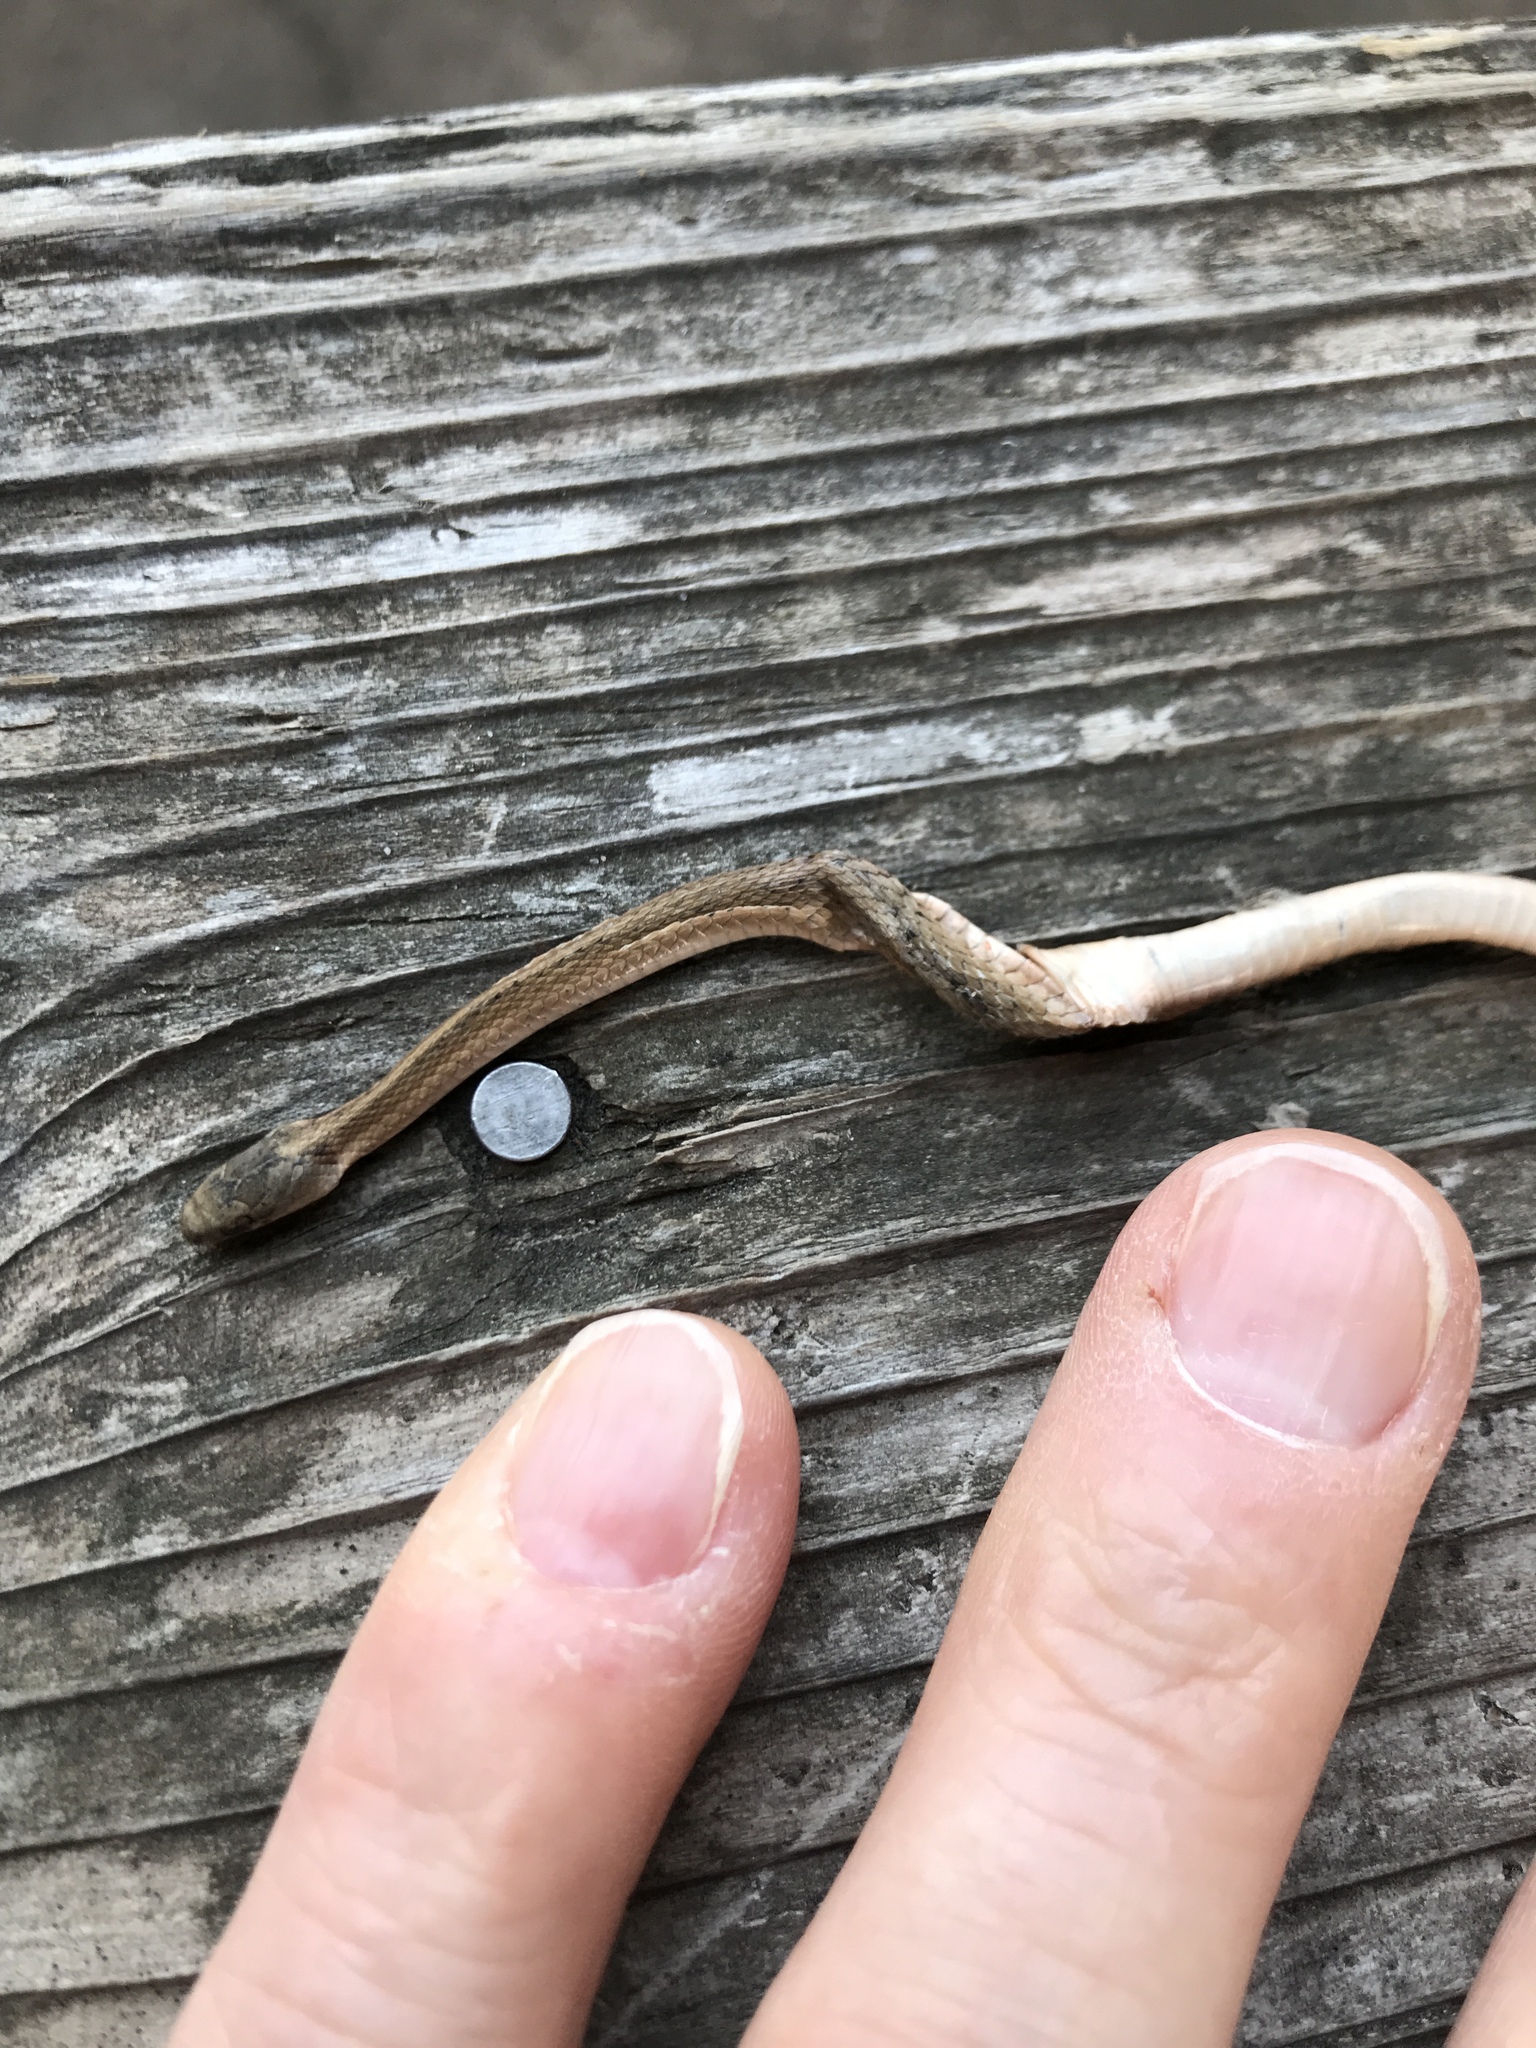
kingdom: Animalia
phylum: Chordata
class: Squamata
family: Colubridae
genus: Storeria
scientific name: Storeria dekayi
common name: (dekay’s) brown snake
